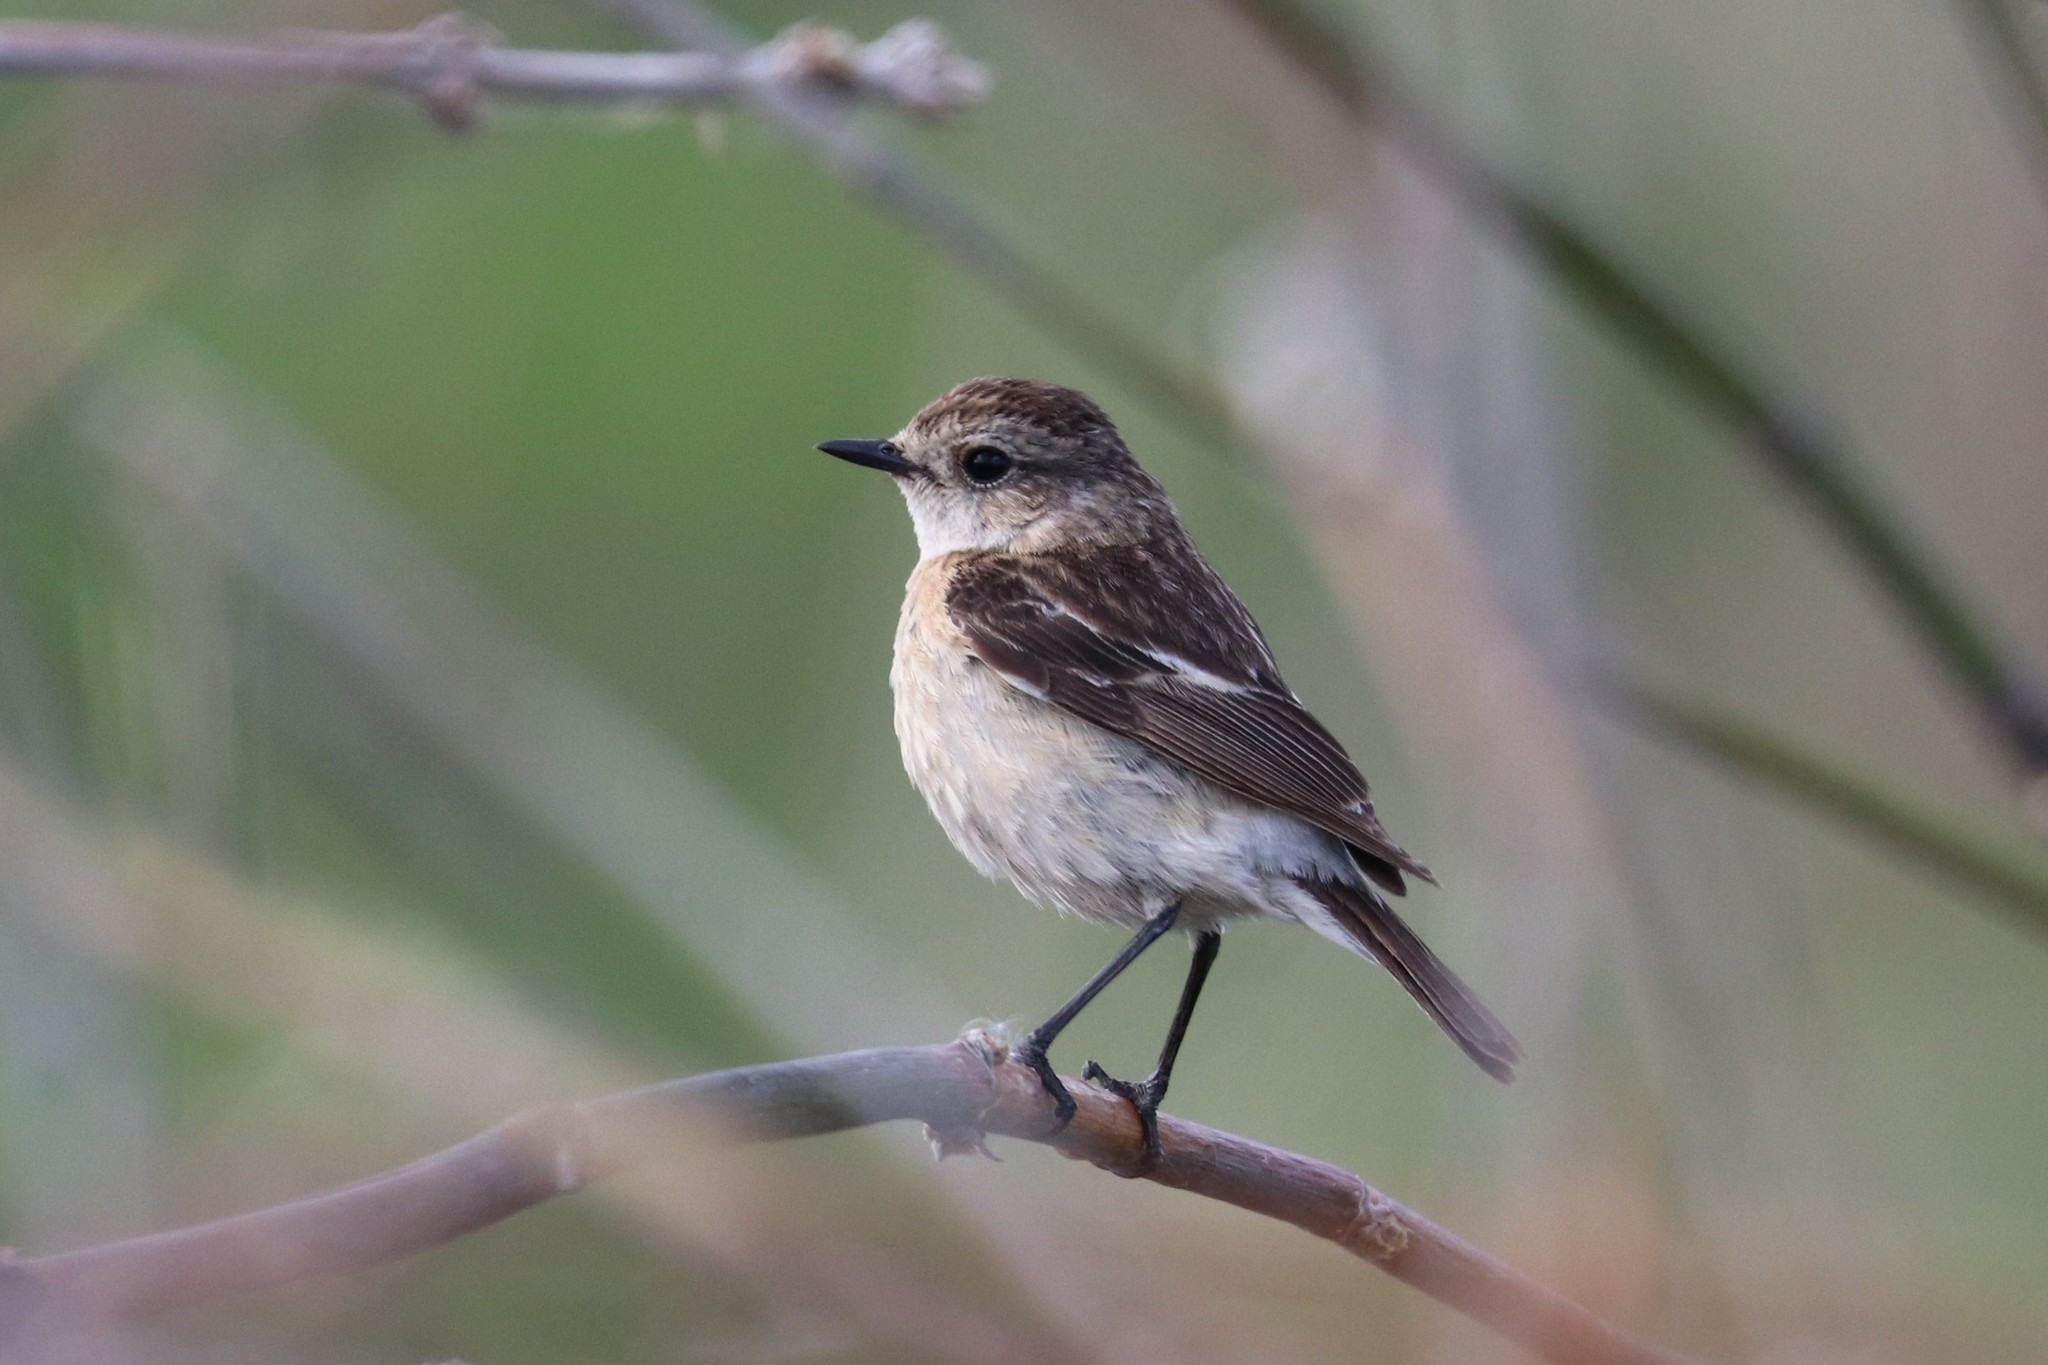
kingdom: Animalia
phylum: Chordata
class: Aves
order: Passeriformes
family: Muscicapidae
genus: Saxicola
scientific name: Saxicola maurus
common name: Siberian stonechat
